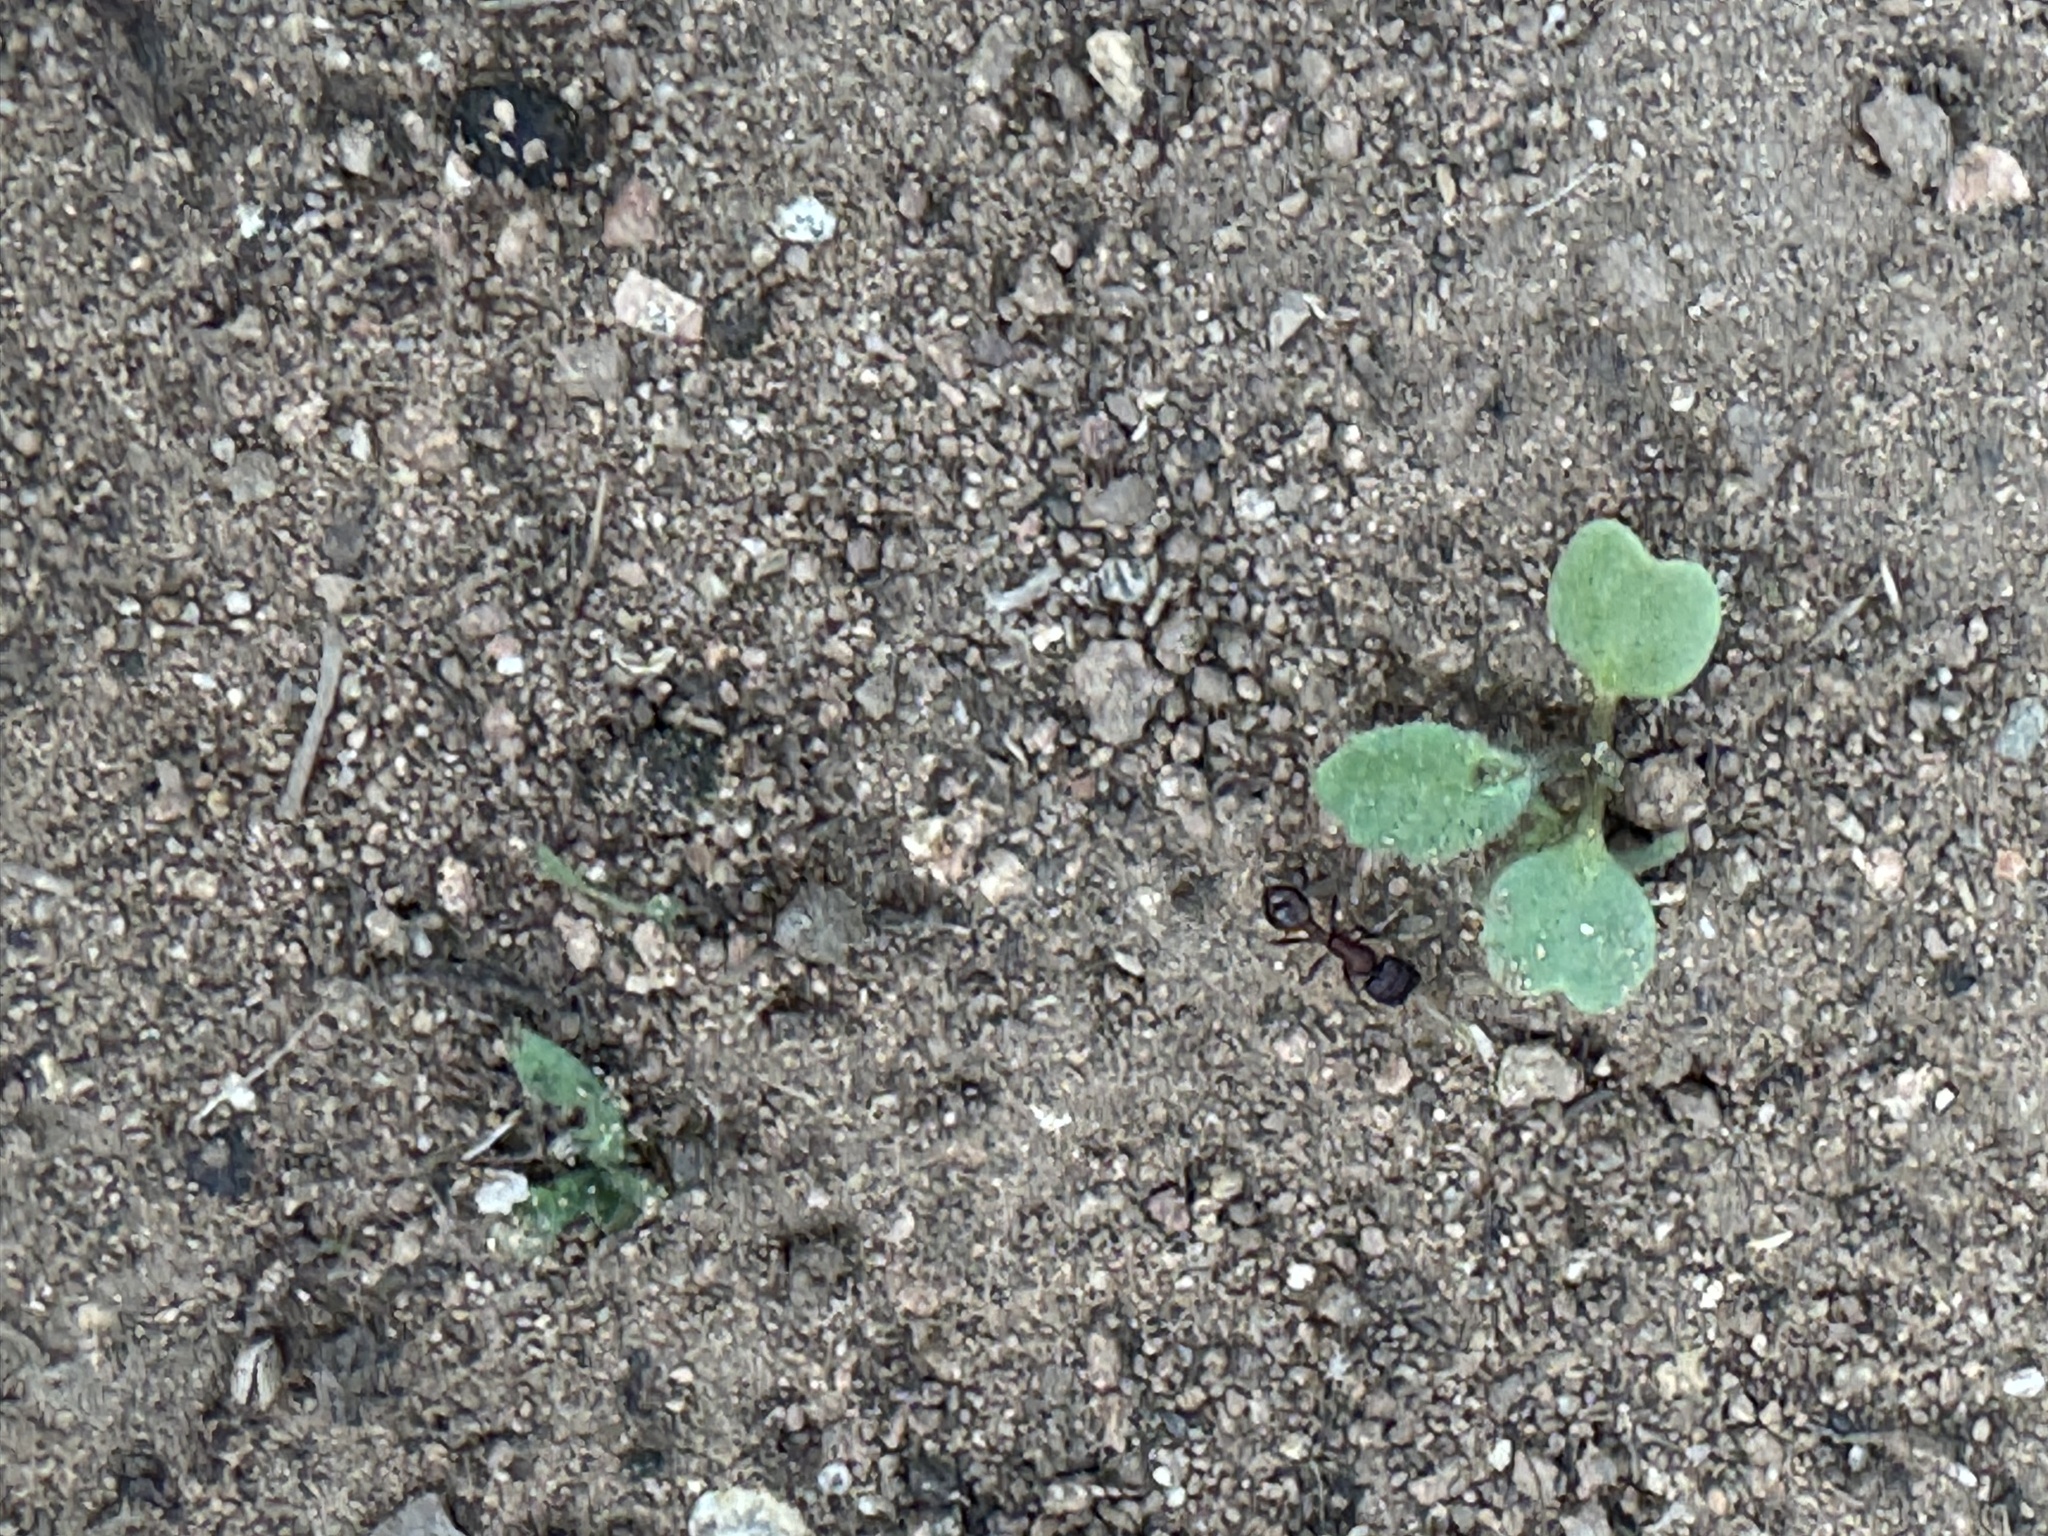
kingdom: Animalia
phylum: Arthropoda
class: Insecta
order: Hymenoptera
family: Formicidae
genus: Pogonomyrmex
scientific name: Pogonomyrmex rugosus
